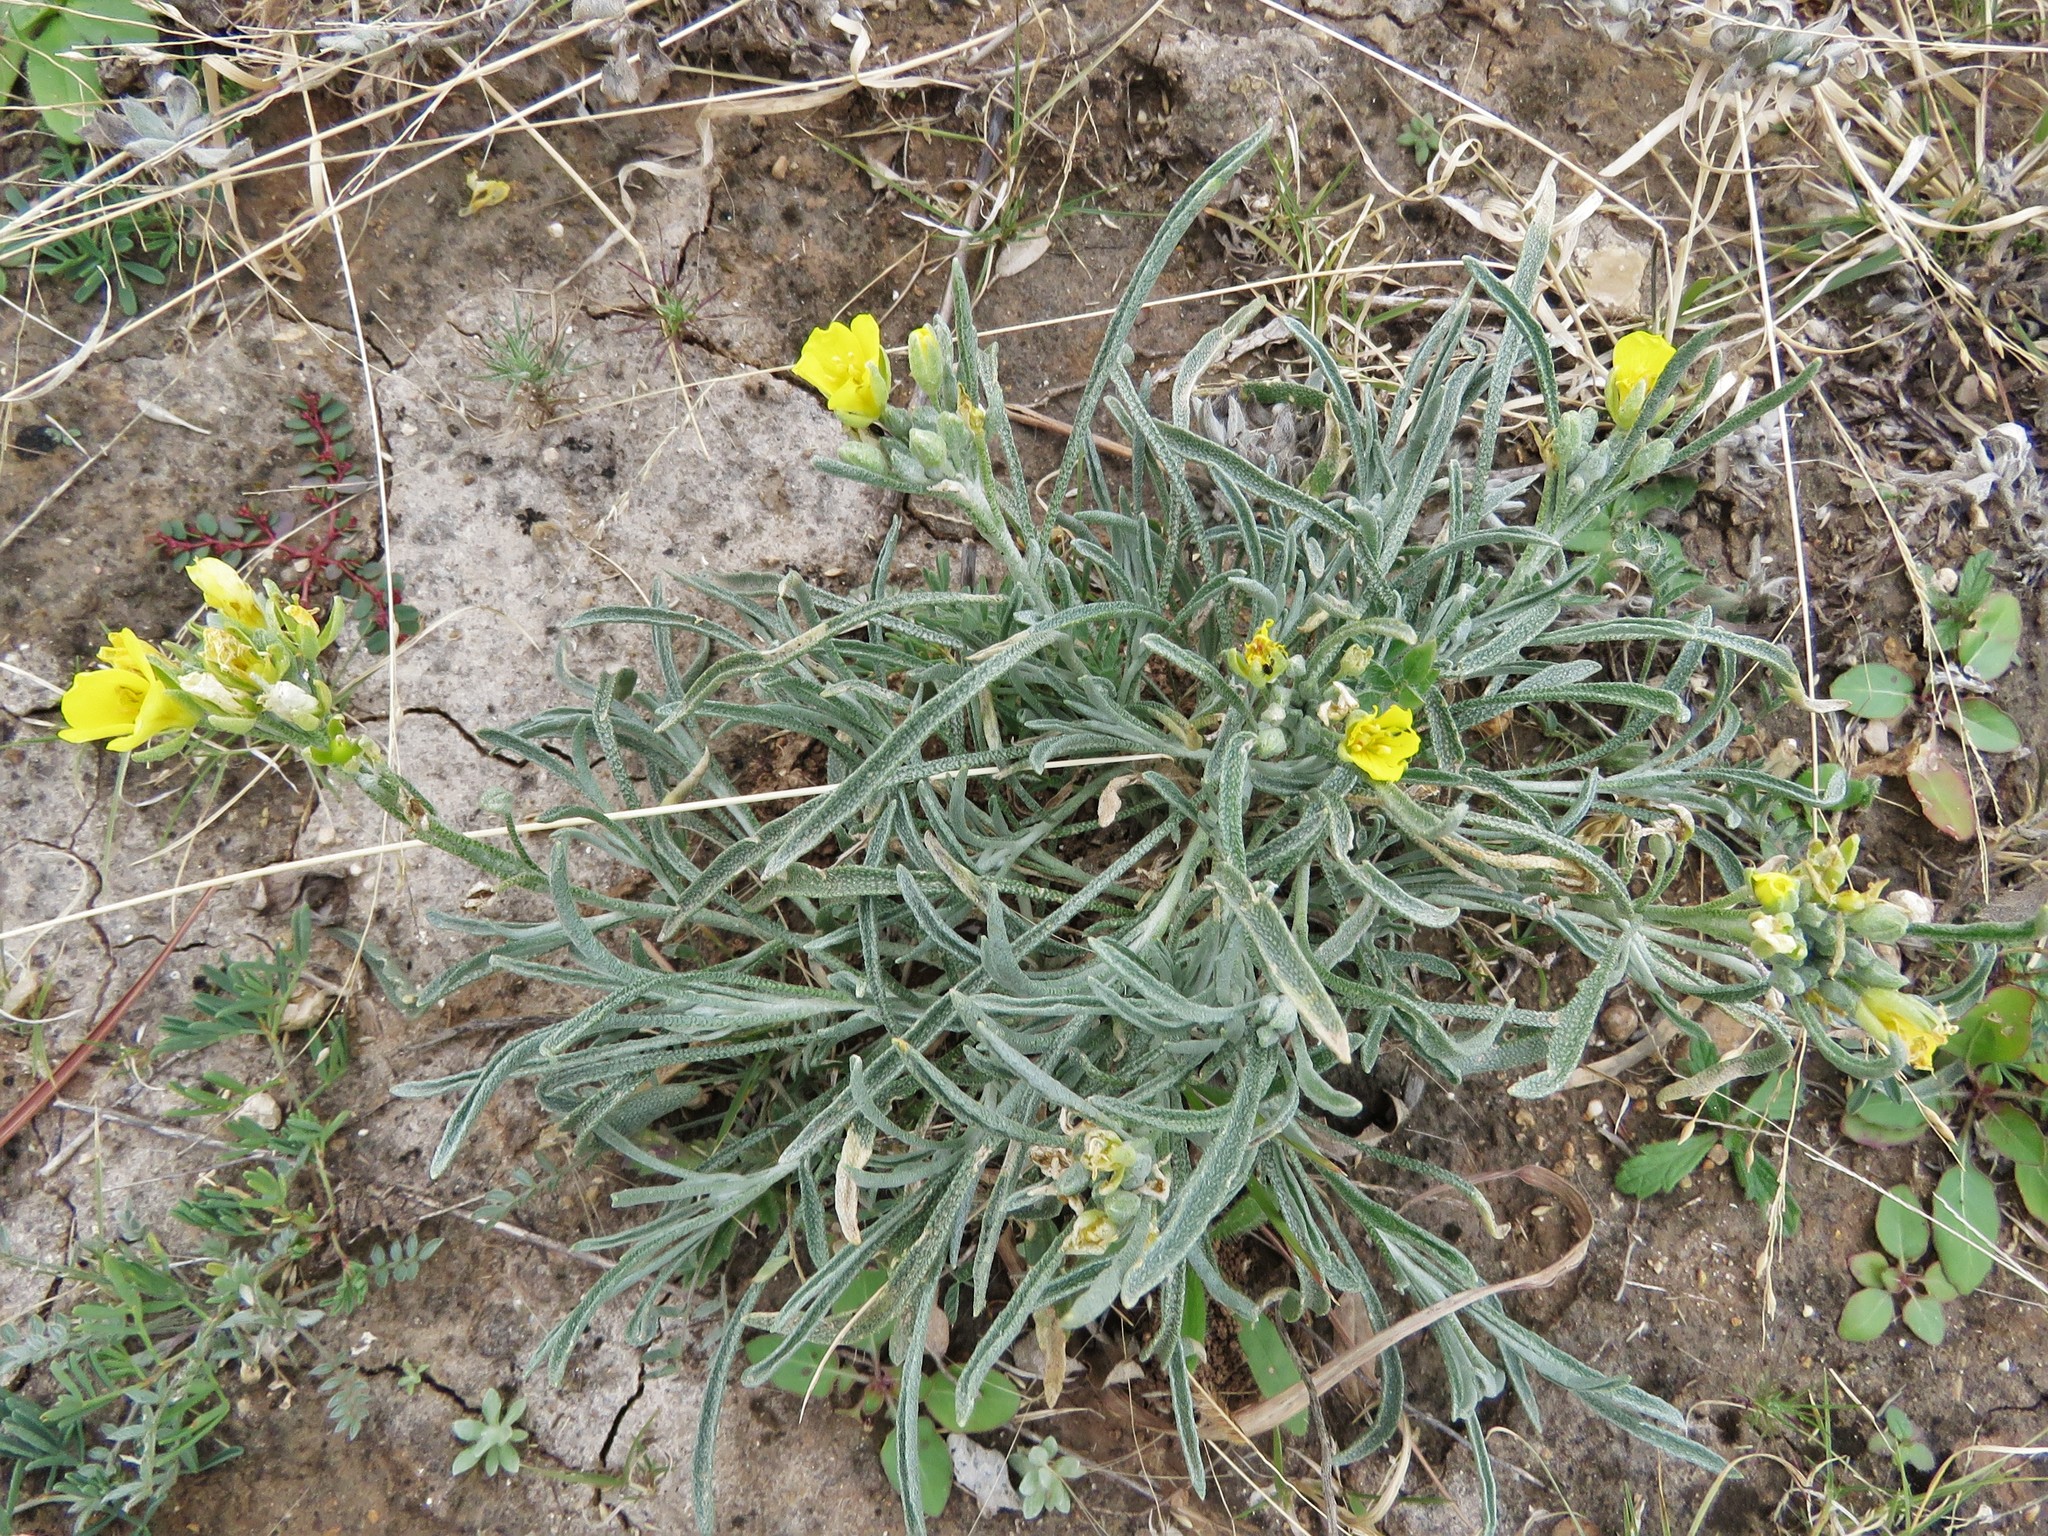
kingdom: Plantae
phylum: Tracheophyta
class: Magnoliopsida
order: Brassicales
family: Brassicaceae
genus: Physaria
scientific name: Physaria fendleri
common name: Fendler's bladderpod
